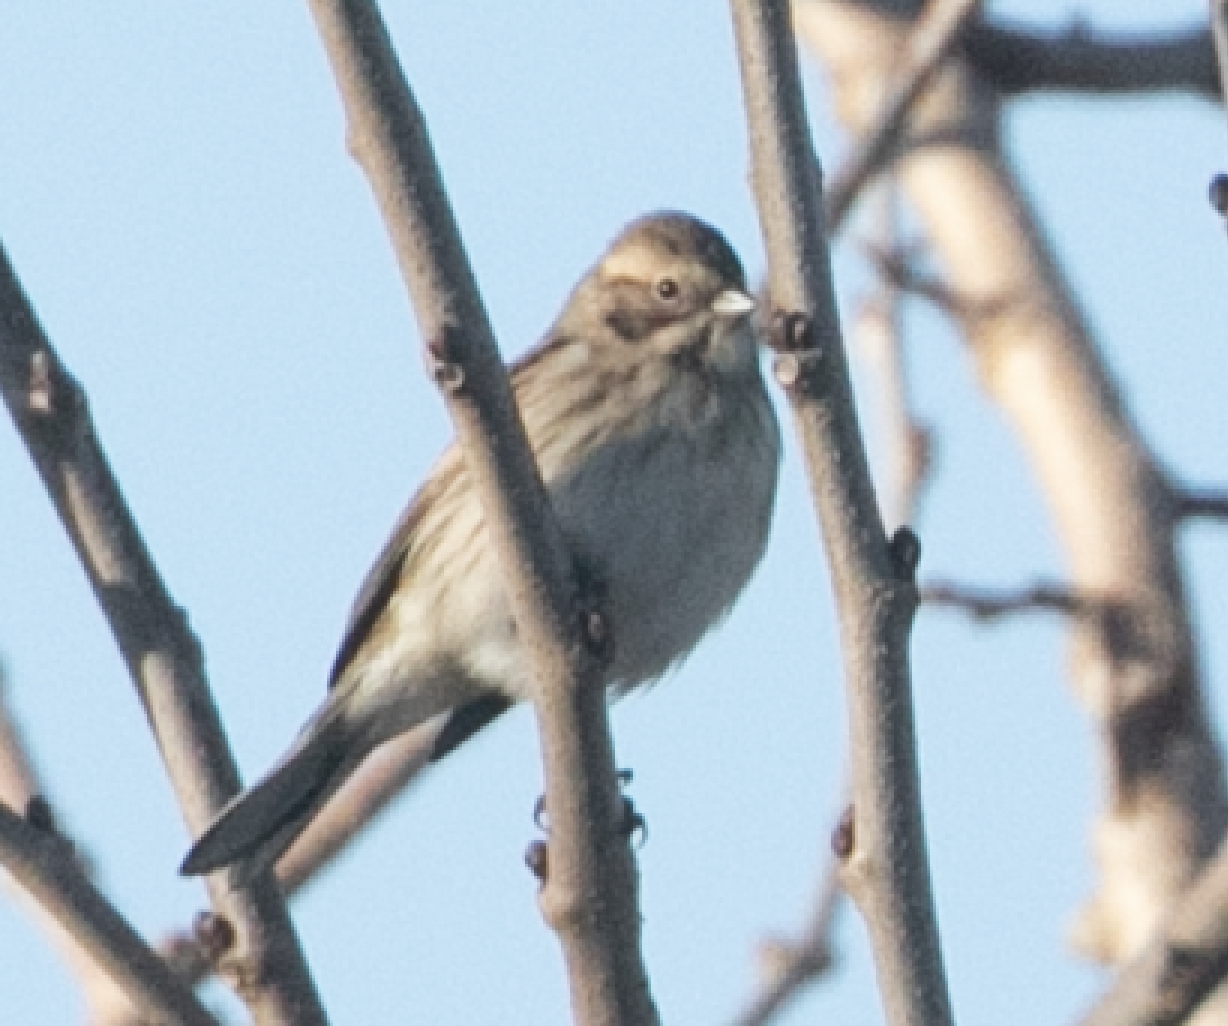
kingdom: Animalia
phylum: Chordata
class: Aves
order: Passeriformes
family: Emberizidae
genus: Emberiza
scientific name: Emberiza schoeniclus
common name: Reed bunting
